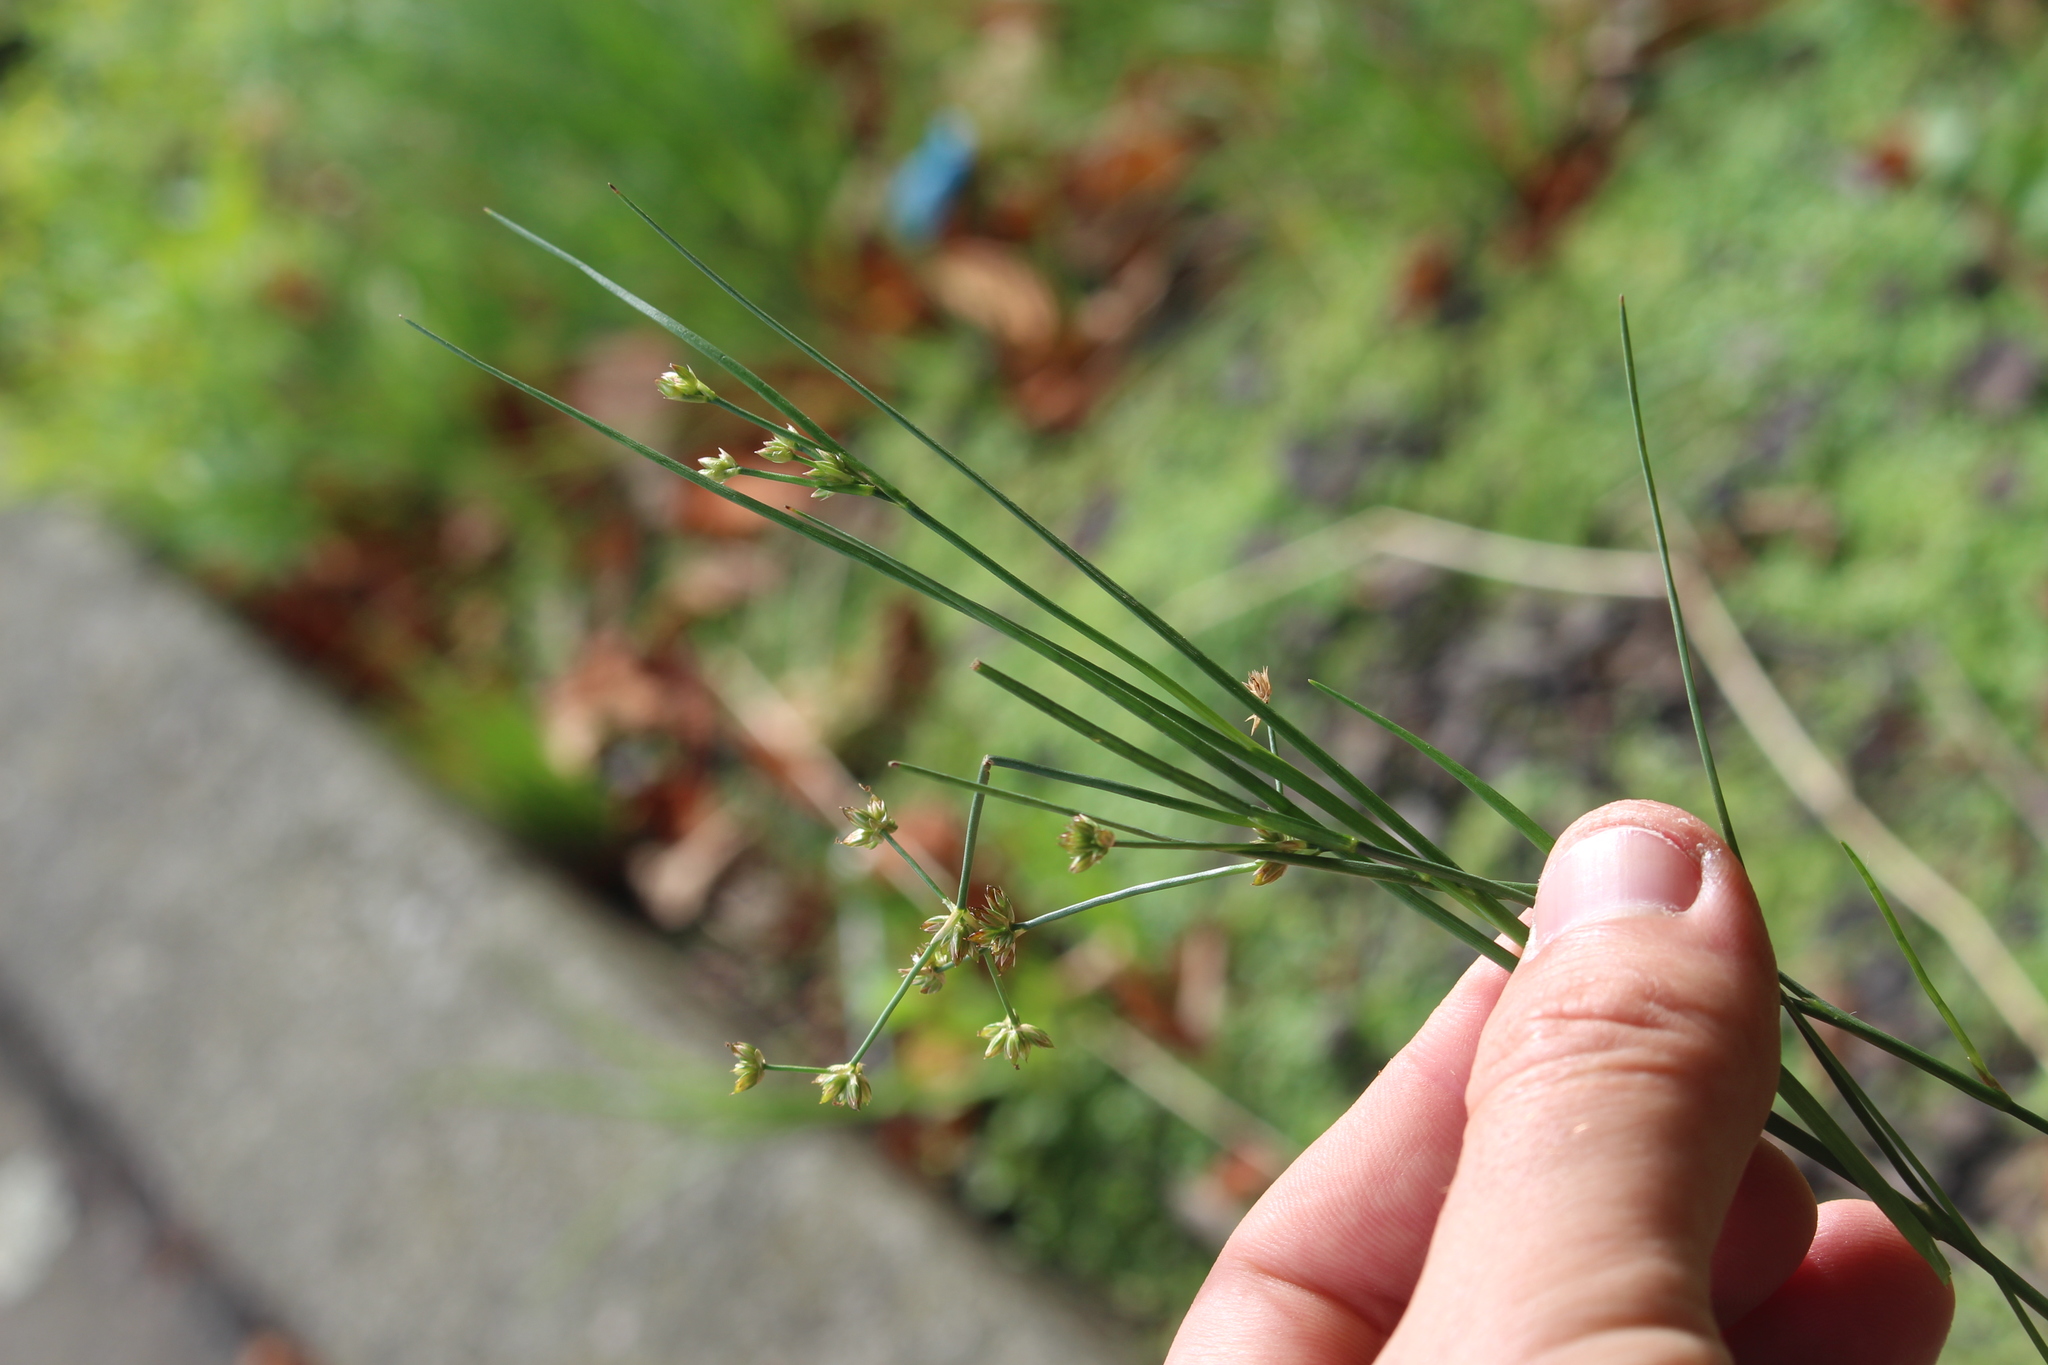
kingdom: Plantae
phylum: Tracheophyta
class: Liliopsida
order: Poales
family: Juncaceae
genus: Juncus
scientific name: Juncus articulatus
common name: Jointed rush
